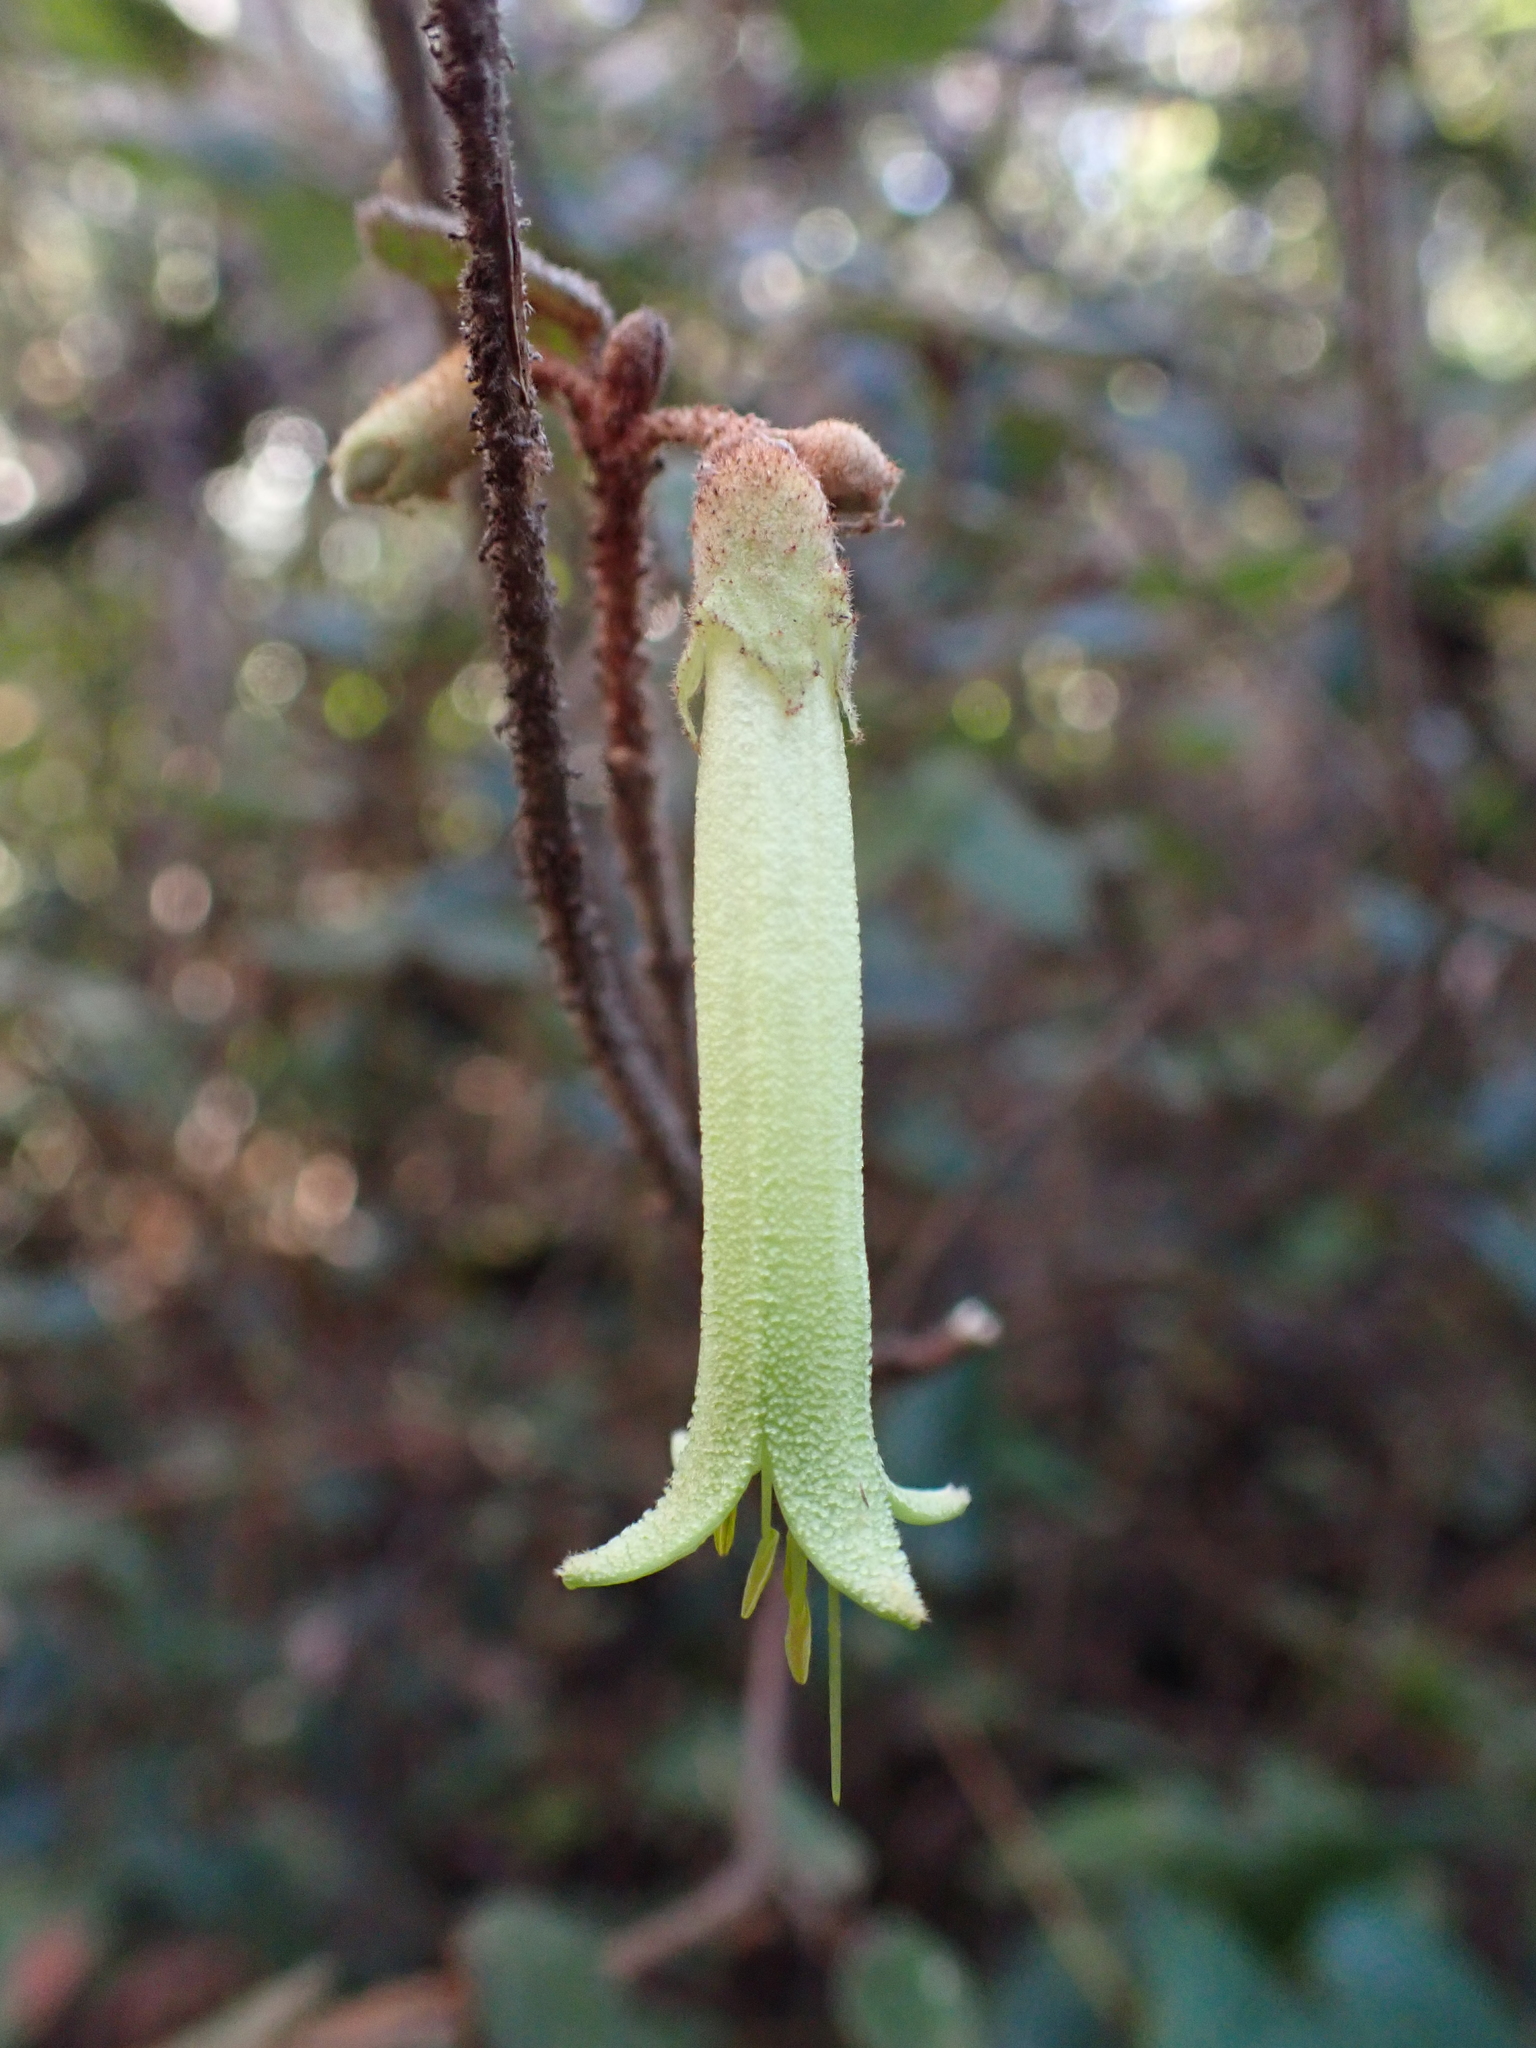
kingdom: Plantae
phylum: Tracheophyta
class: Magnoliopsida
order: Sapindales
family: Rutaceae
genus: Correa
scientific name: Correa reflexa
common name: Common correa
